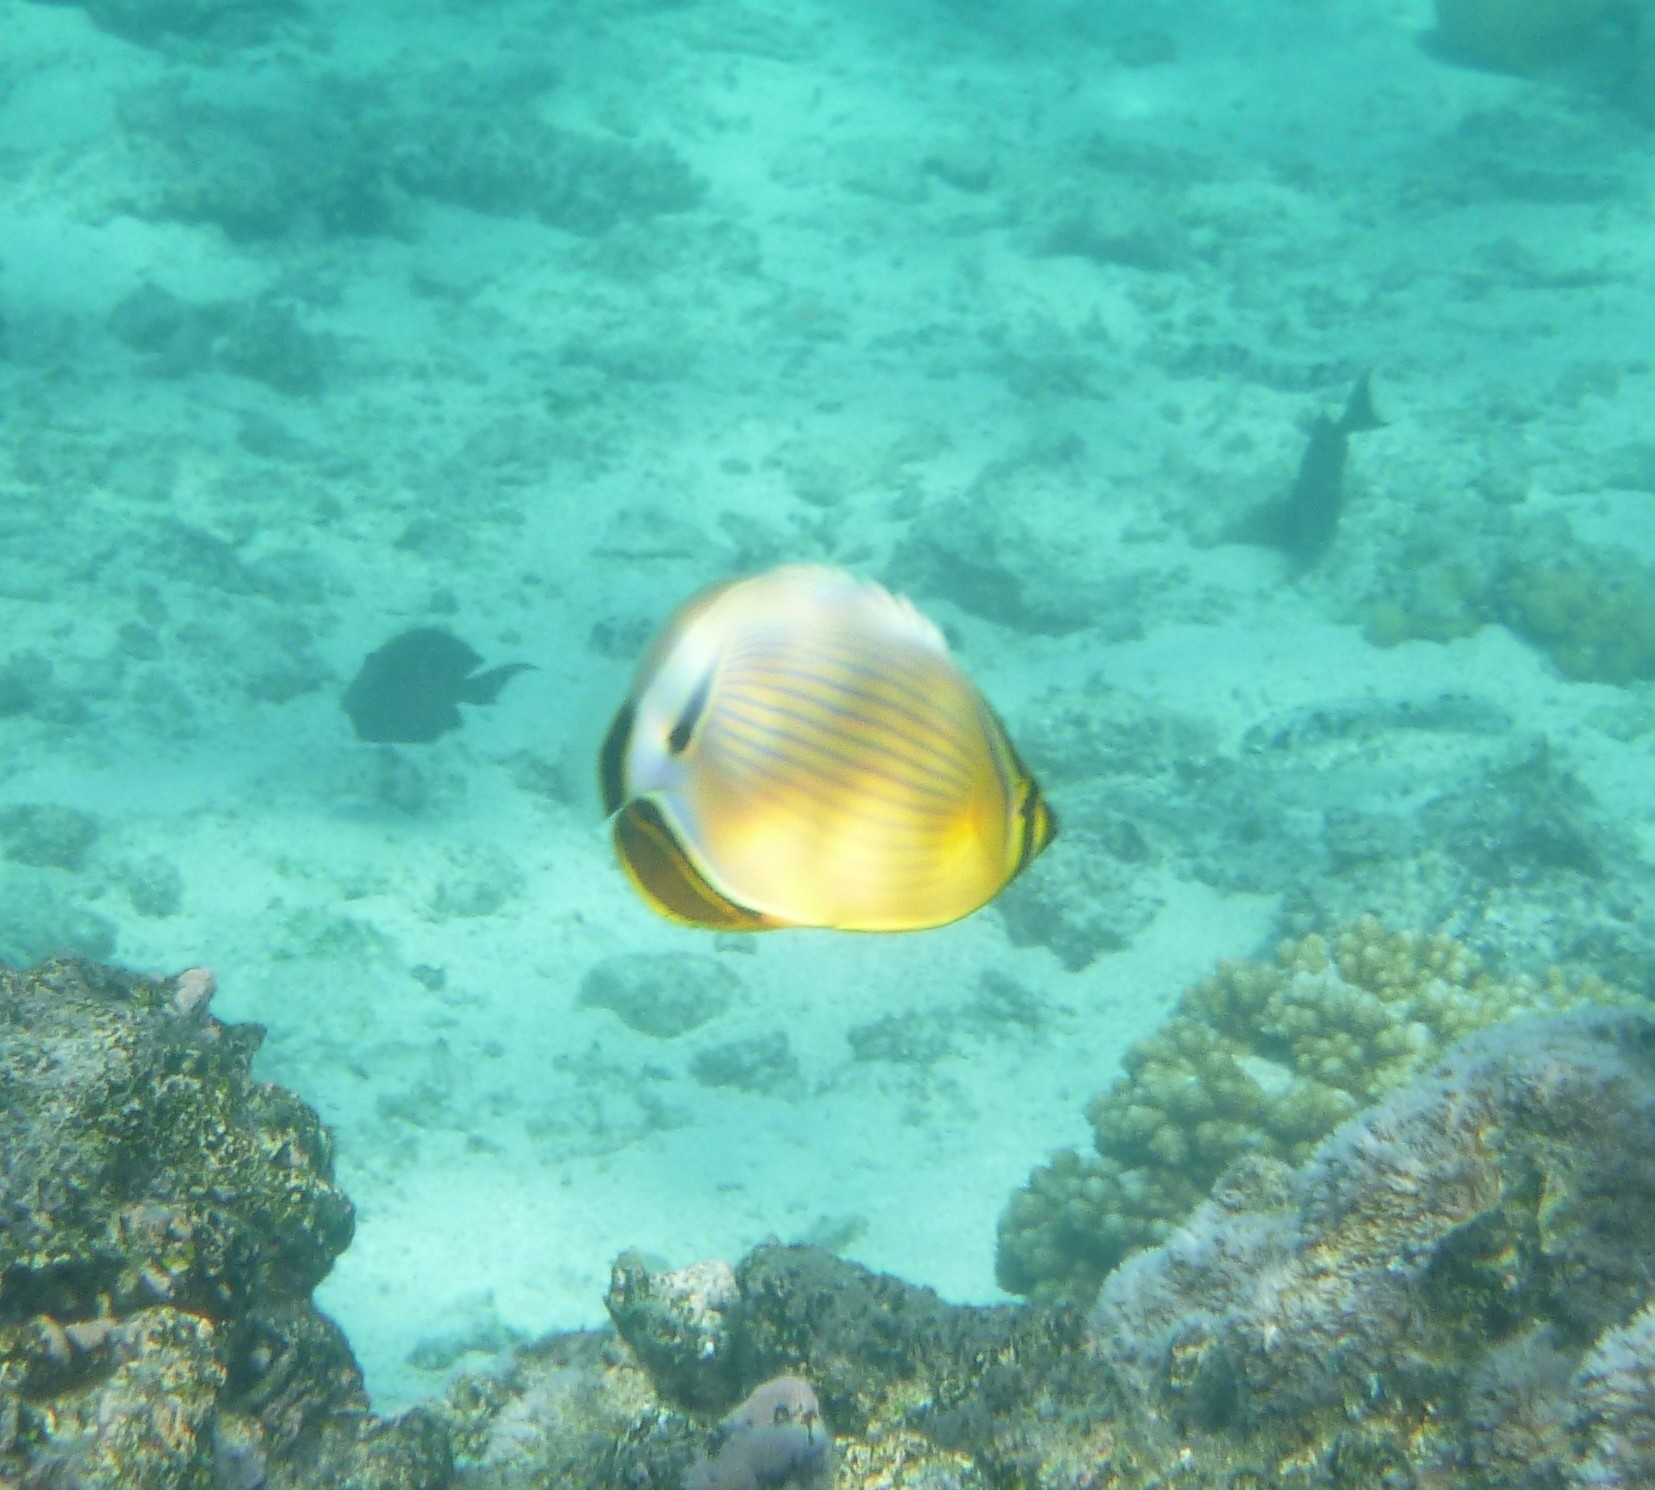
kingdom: Animalia
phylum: Chordata
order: Perciformes
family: Chaetodontidae
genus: Chaetodon
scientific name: Chaetodon lunulatus
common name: Redfin butterflyfish
